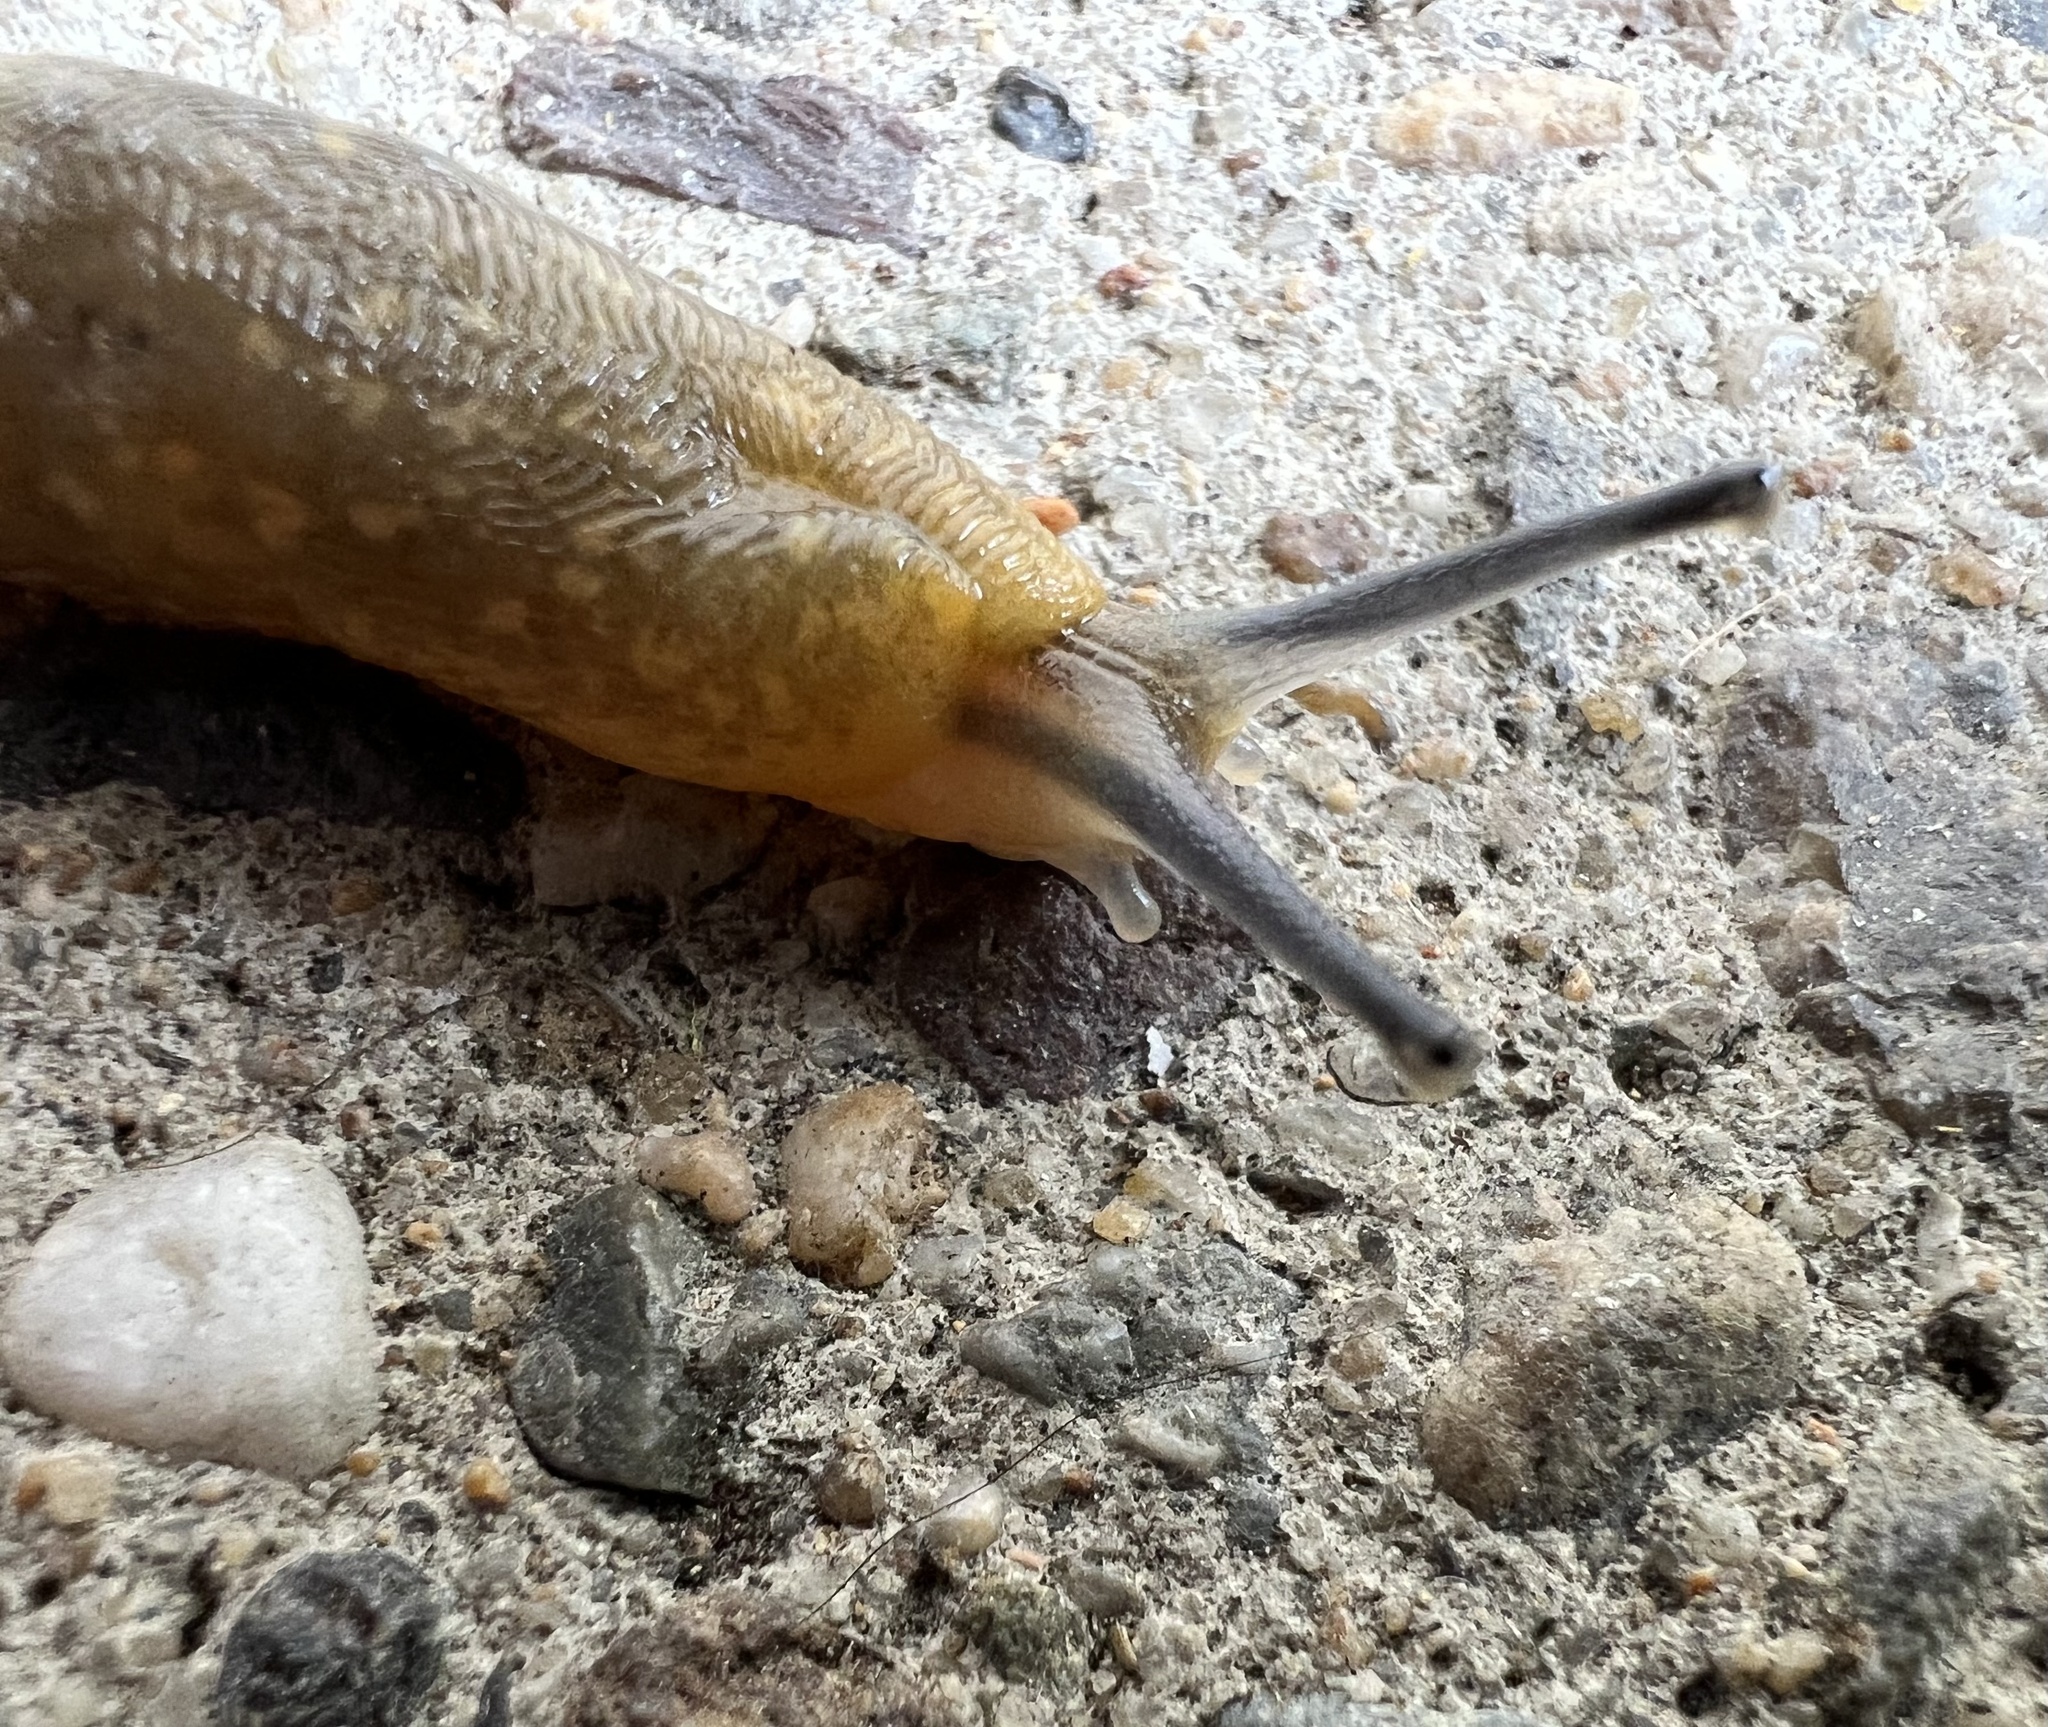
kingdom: Animalia
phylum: Mollusca
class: Gastropoda
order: Stylommatophora
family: Limacidae
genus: Limacus
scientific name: Limacus flavus
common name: Yellow gardenslug
